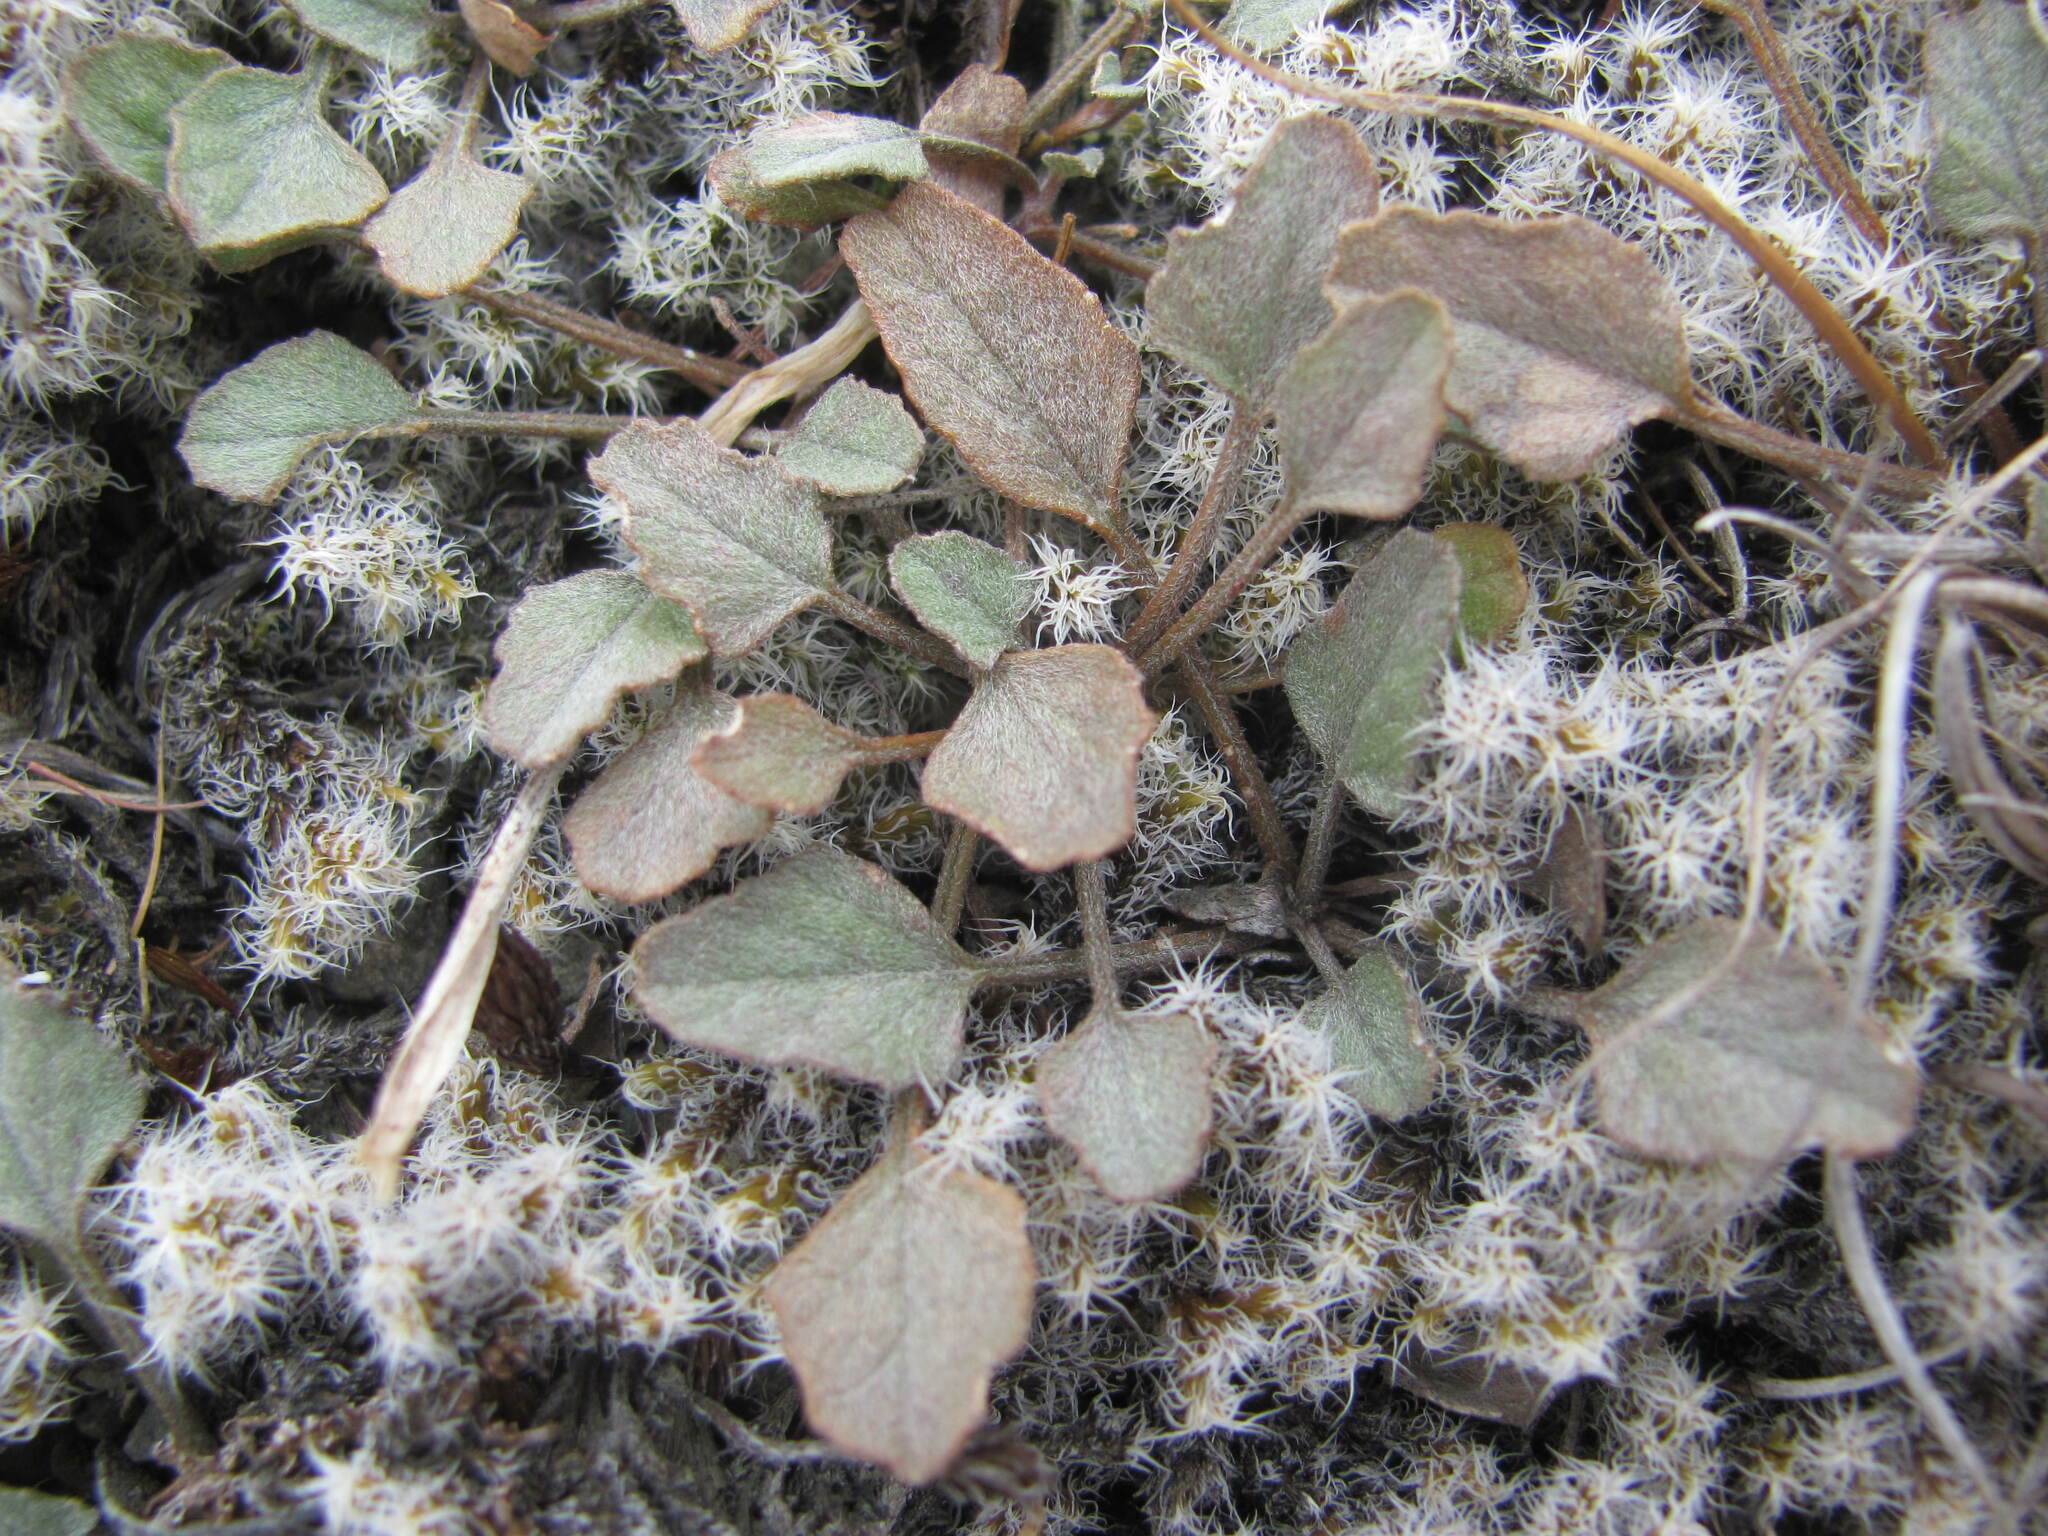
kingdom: Plantae
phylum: Tracheophyta
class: Magnoliopsida
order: Solanales
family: Convolvulaceae
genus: Convolvulus
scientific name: Convolvulus verecundus
